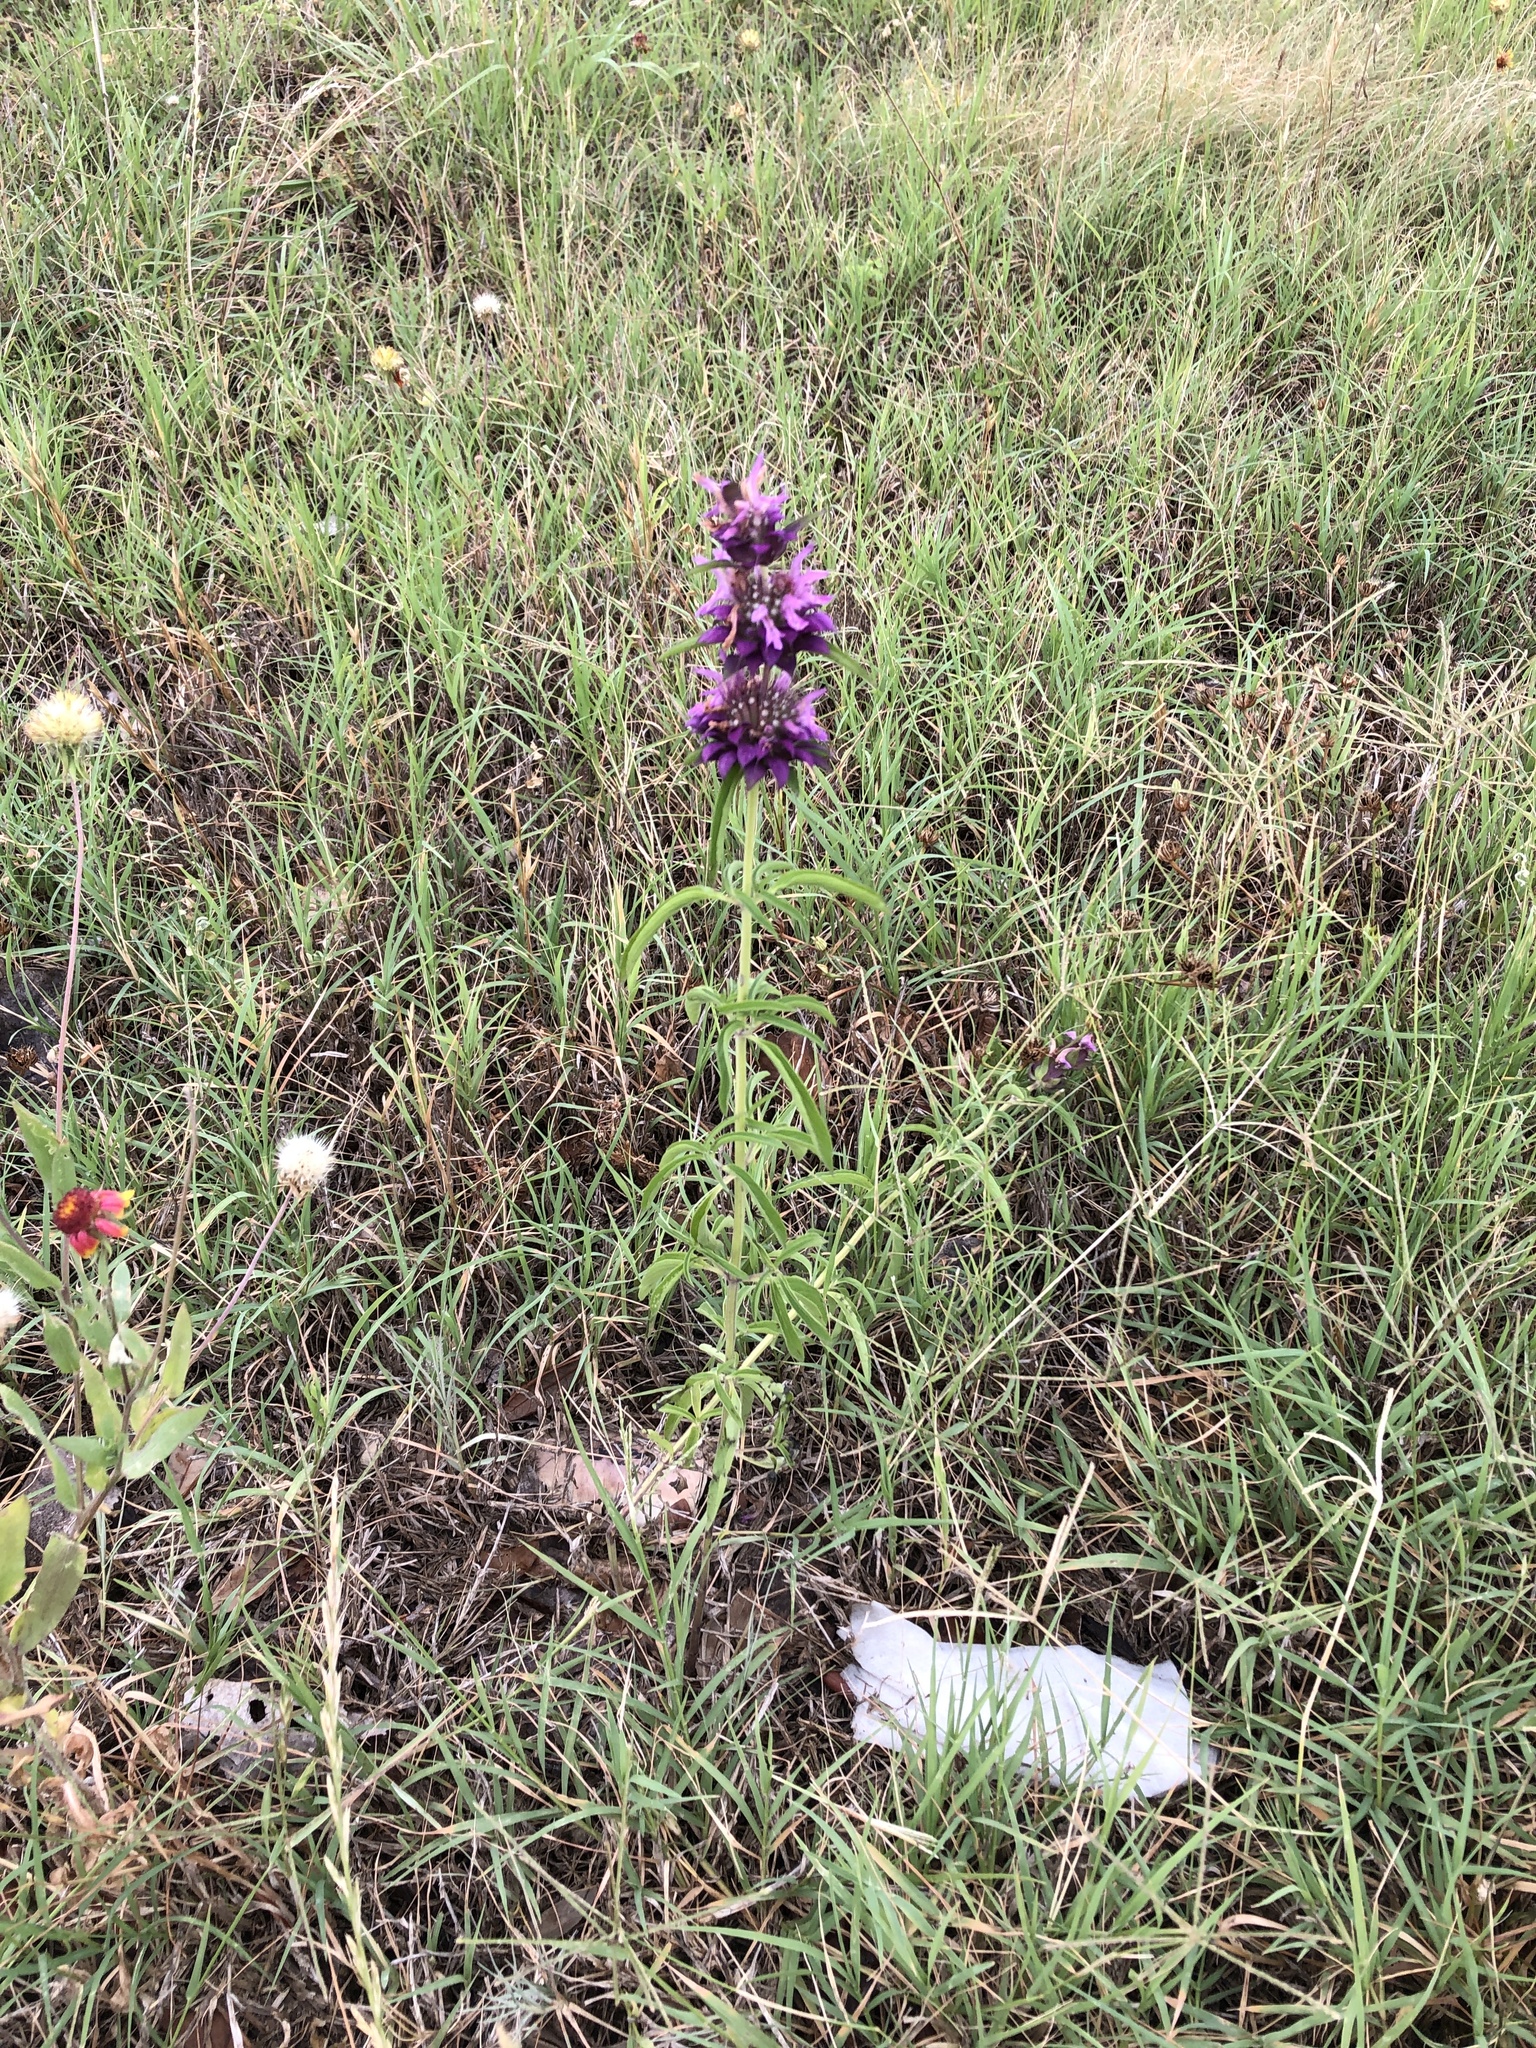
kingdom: Plantae
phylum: Tracheophyta
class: Magnoliopsida
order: Lamiales
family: Lamiaceae
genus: Monarda
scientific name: Monarda citriodora
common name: Lemon beebalm
